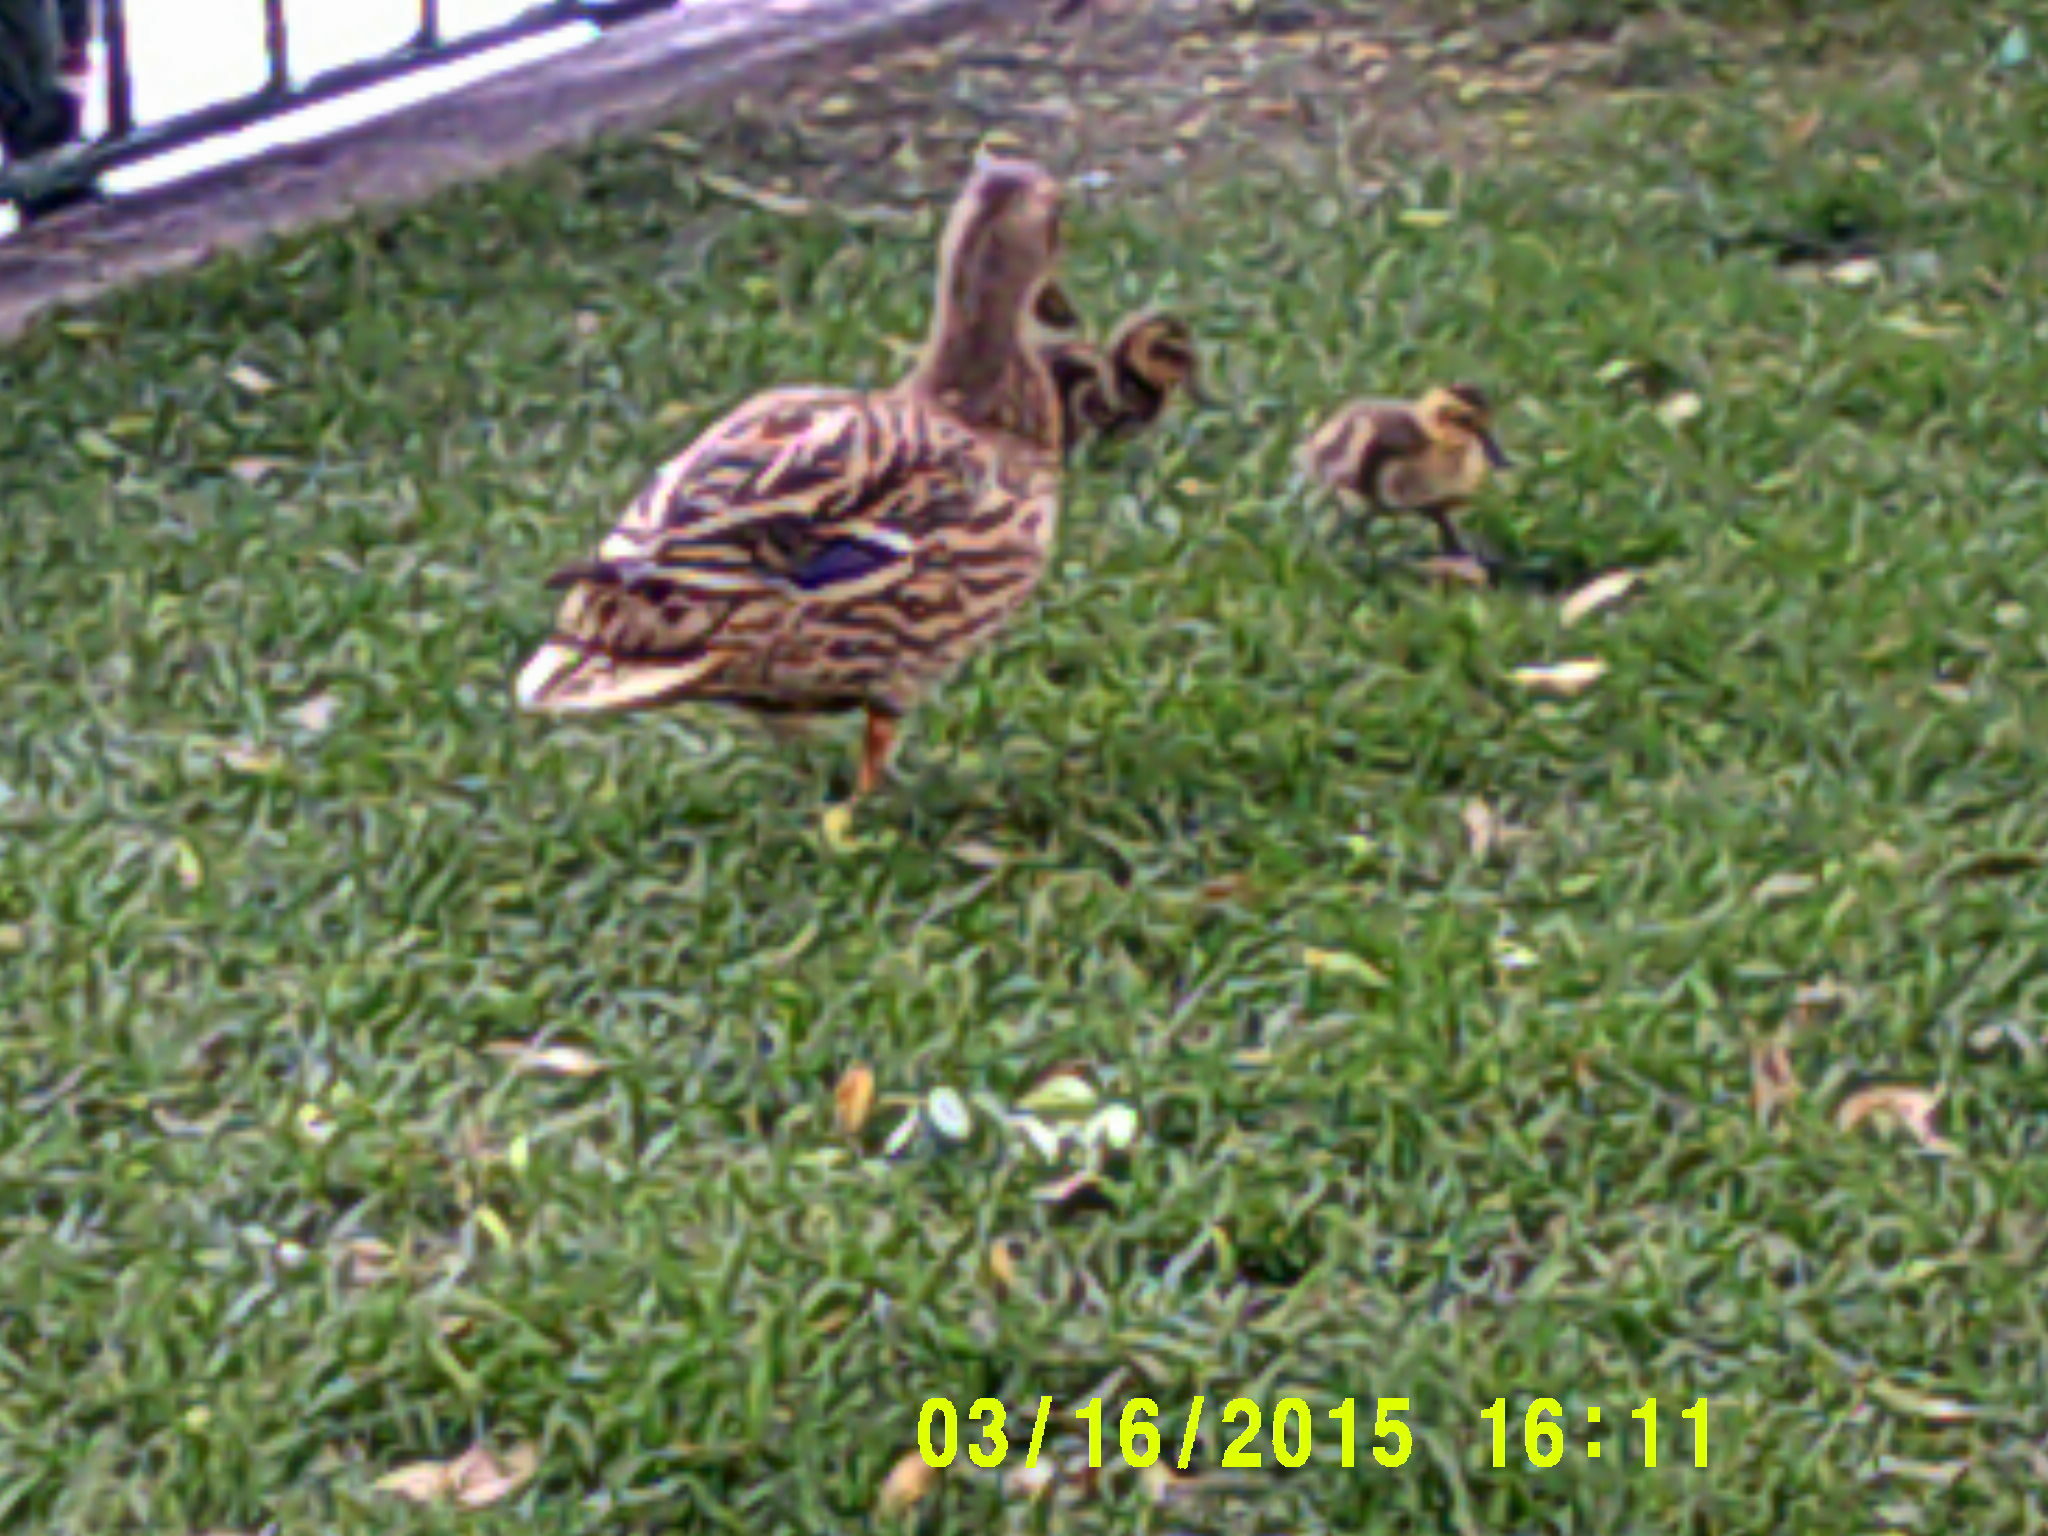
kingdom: Animalia
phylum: Chordata
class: Aves
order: Anseriformes
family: Anatidae
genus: Anas
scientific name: Anas platyrhynchos
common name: Mallard
